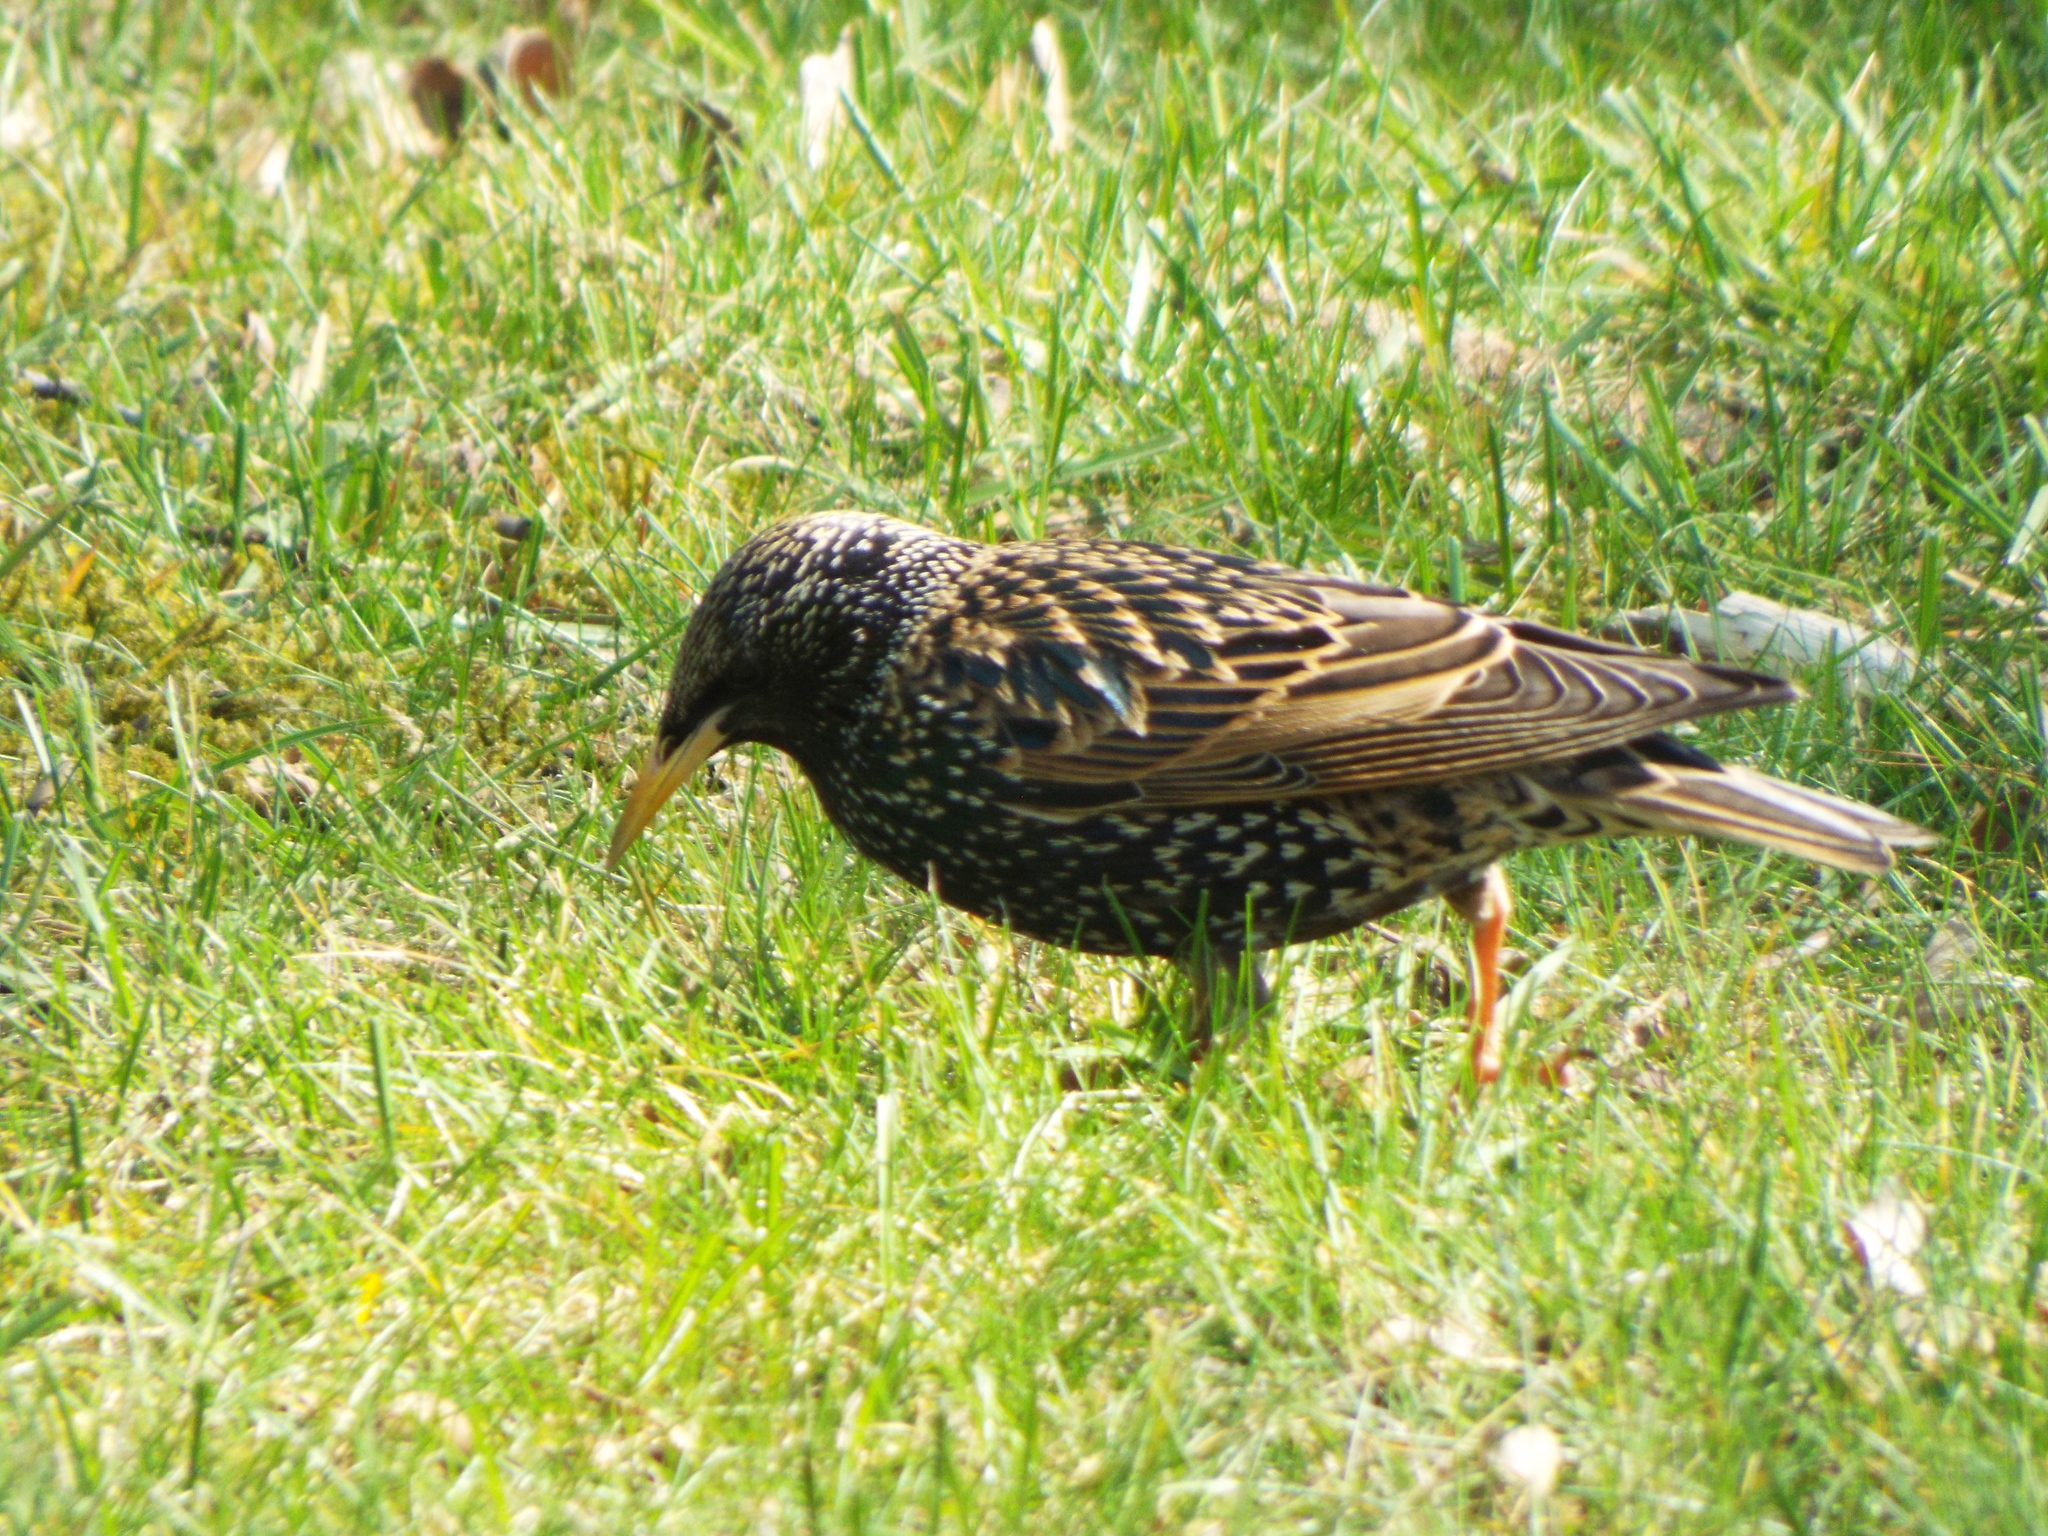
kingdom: Animalia
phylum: Chordata
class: Aves
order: Passeriformes
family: Sturnidae
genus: Sturnus
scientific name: Sturnus vulgaris
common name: Common starling
